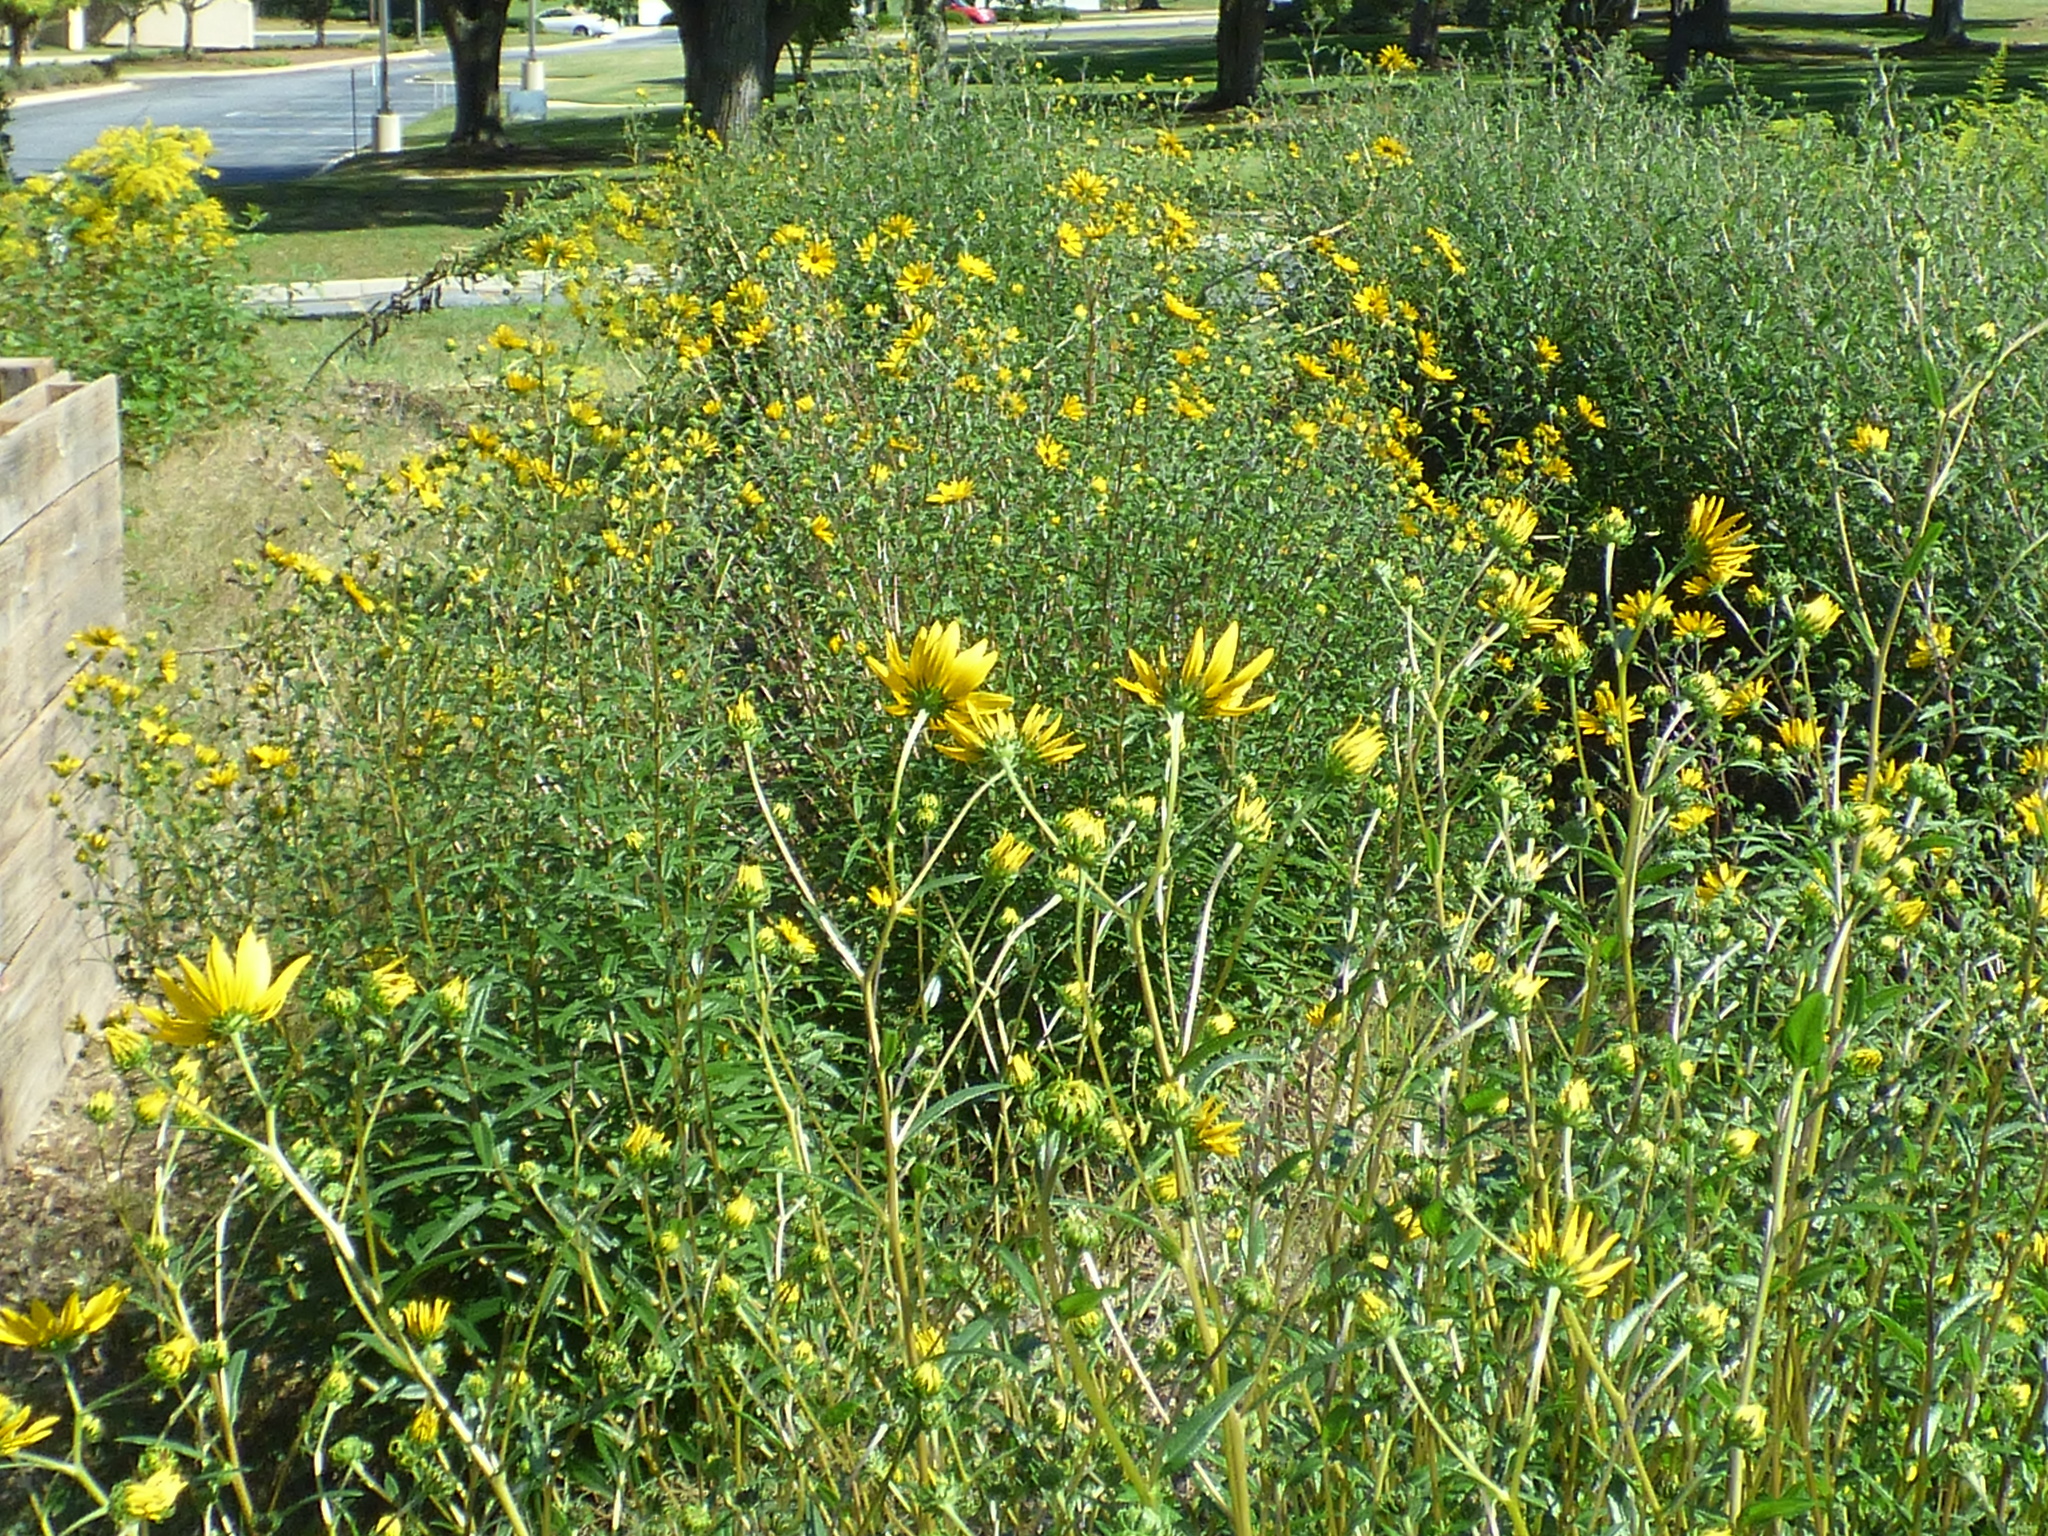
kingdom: Plantae
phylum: Tracheophyta
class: Magnoliopsida
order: Asterales
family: Asteraceae
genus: Helianthus
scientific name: Helianthus angustifolius
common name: Swamp sunflower
